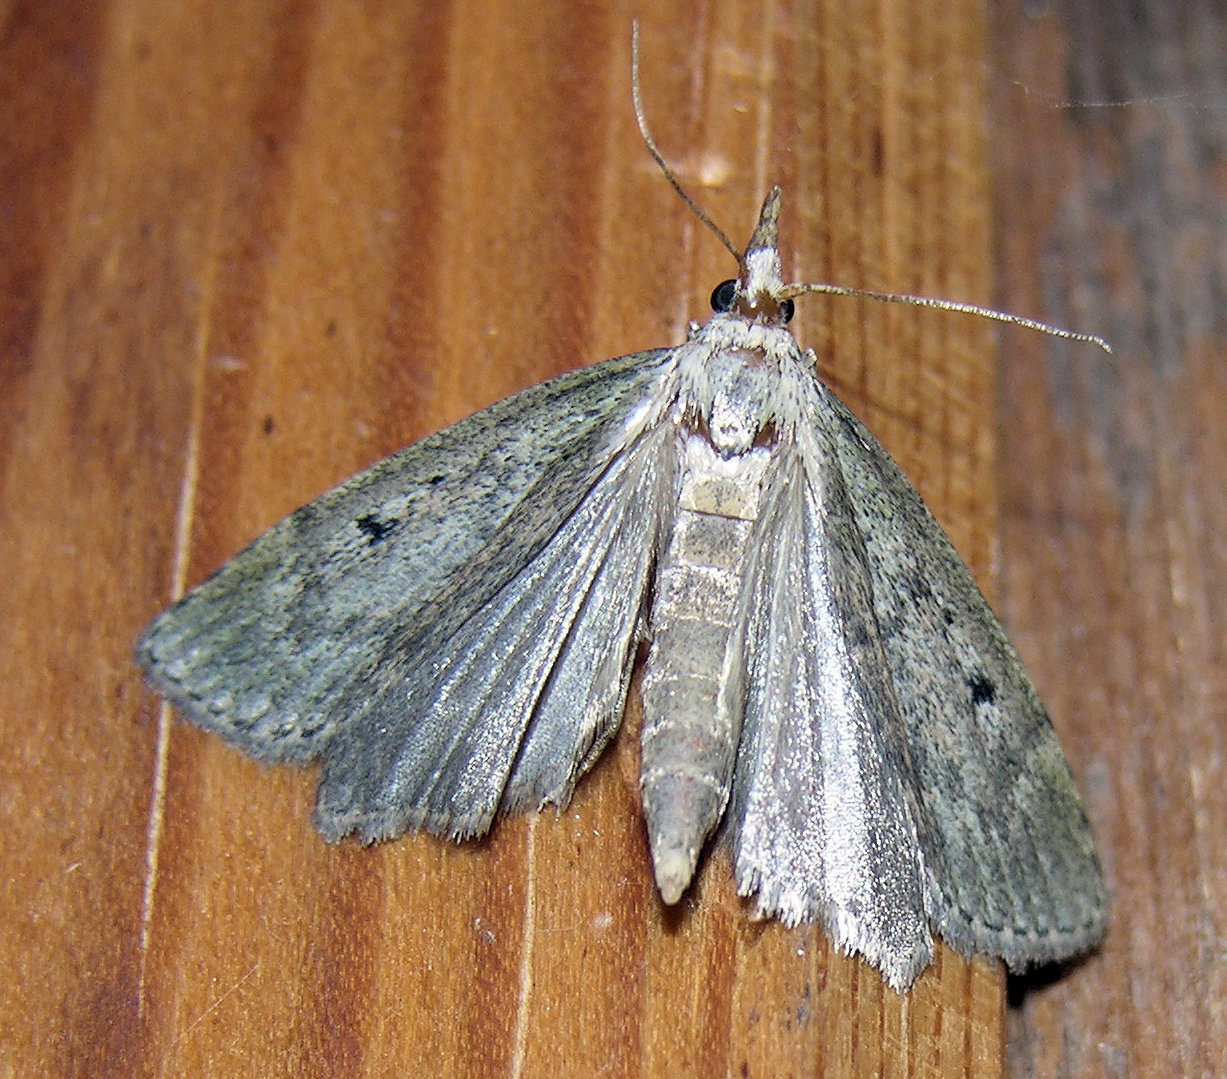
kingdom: Animalia
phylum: Arthropoda
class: Insecta
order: Lepidoptera
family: Pyralidae
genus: Aphomia
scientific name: Aphomia sociella
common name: Bee moth
